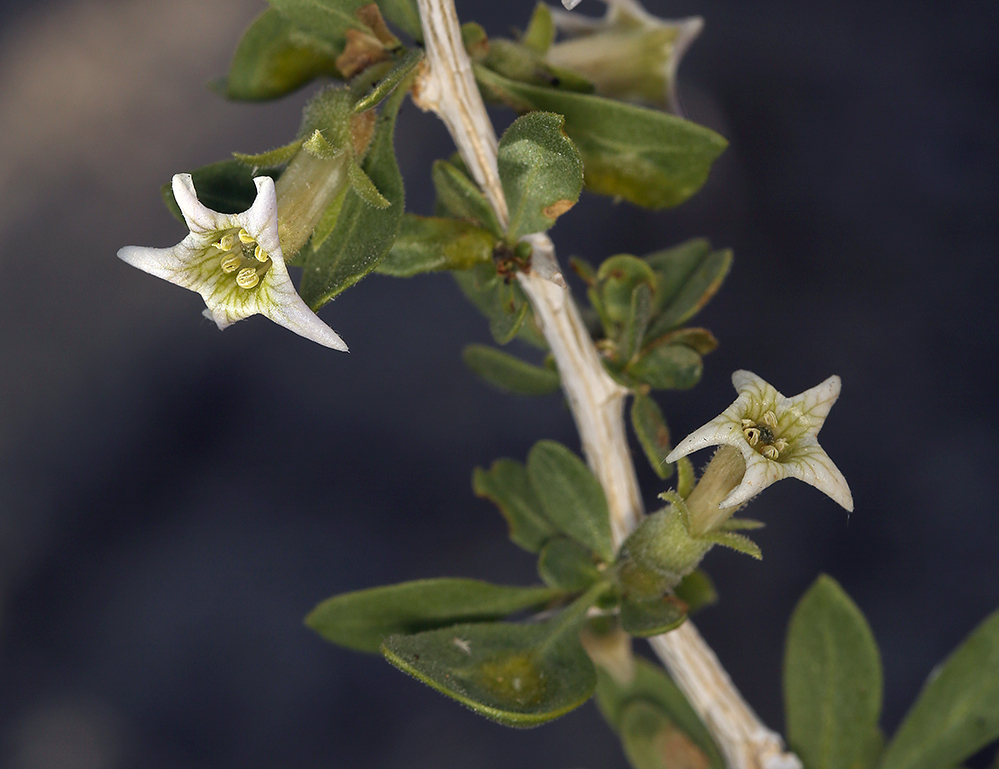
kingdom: Plantae
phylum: Tracheophyta
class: Magnoliopsida
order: Solanales
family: Solanaceae
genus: Lycium
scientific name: Lycium cooperi
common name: Peachthorn
